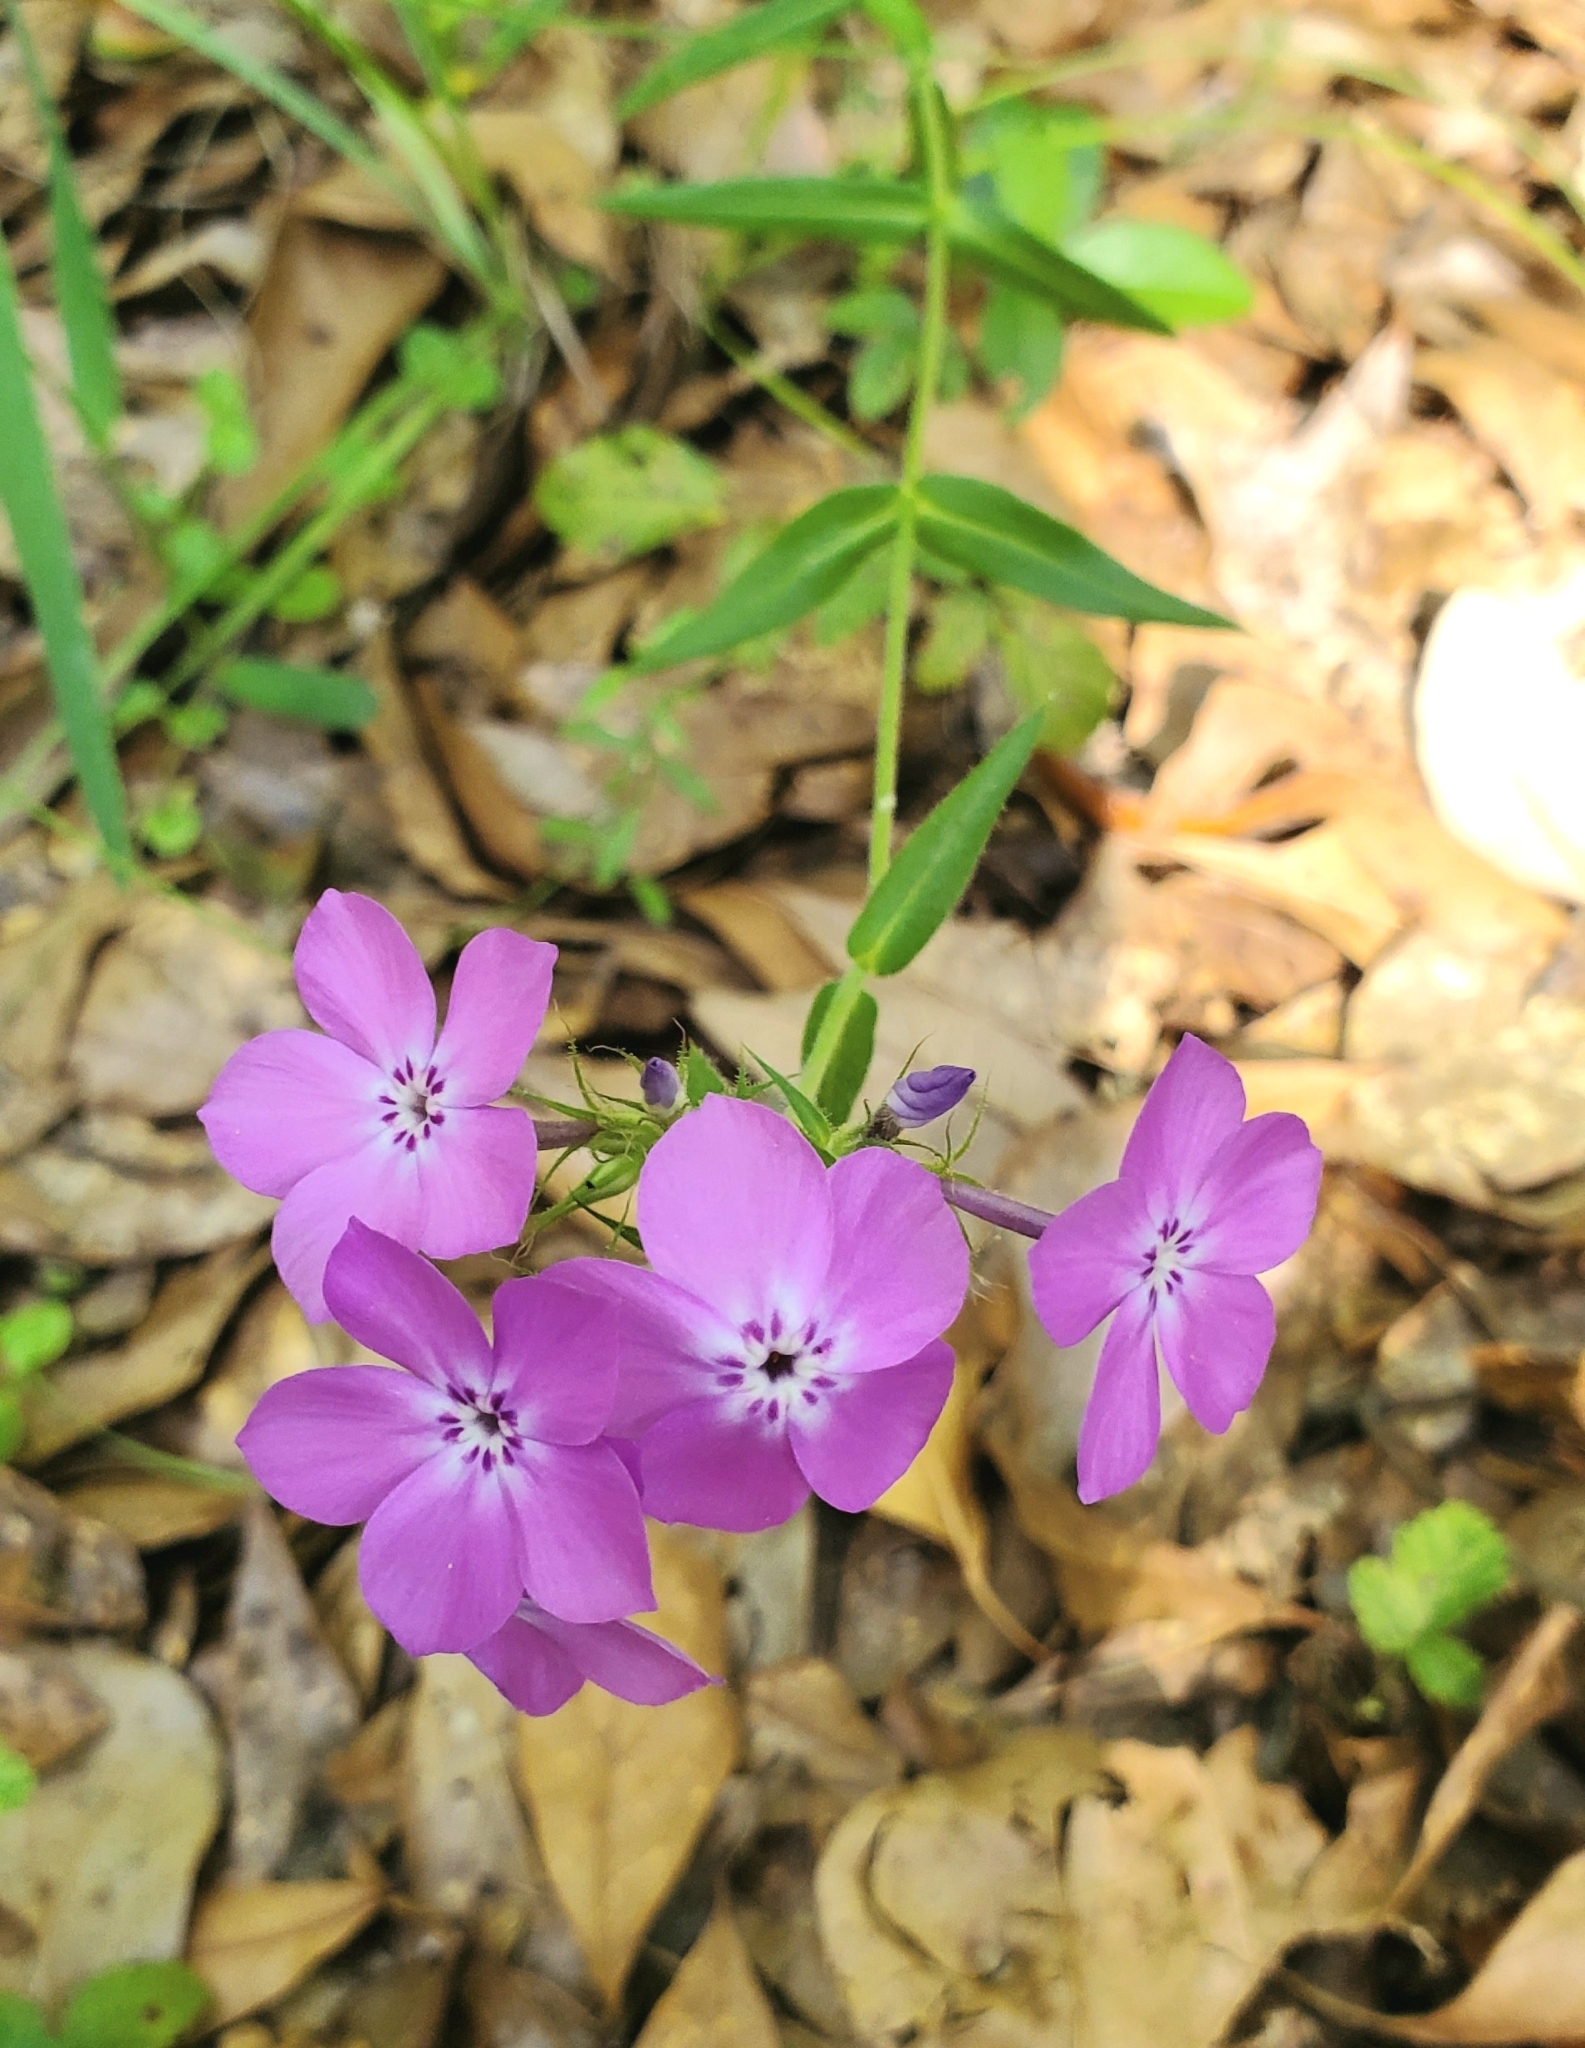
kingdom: Plantae
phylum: Tracheophyta
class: Magnoliopsida
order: Ericales
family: Polemoniaceae
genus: Phlox
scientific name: Phlox pilosa
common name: Prairie phlox
